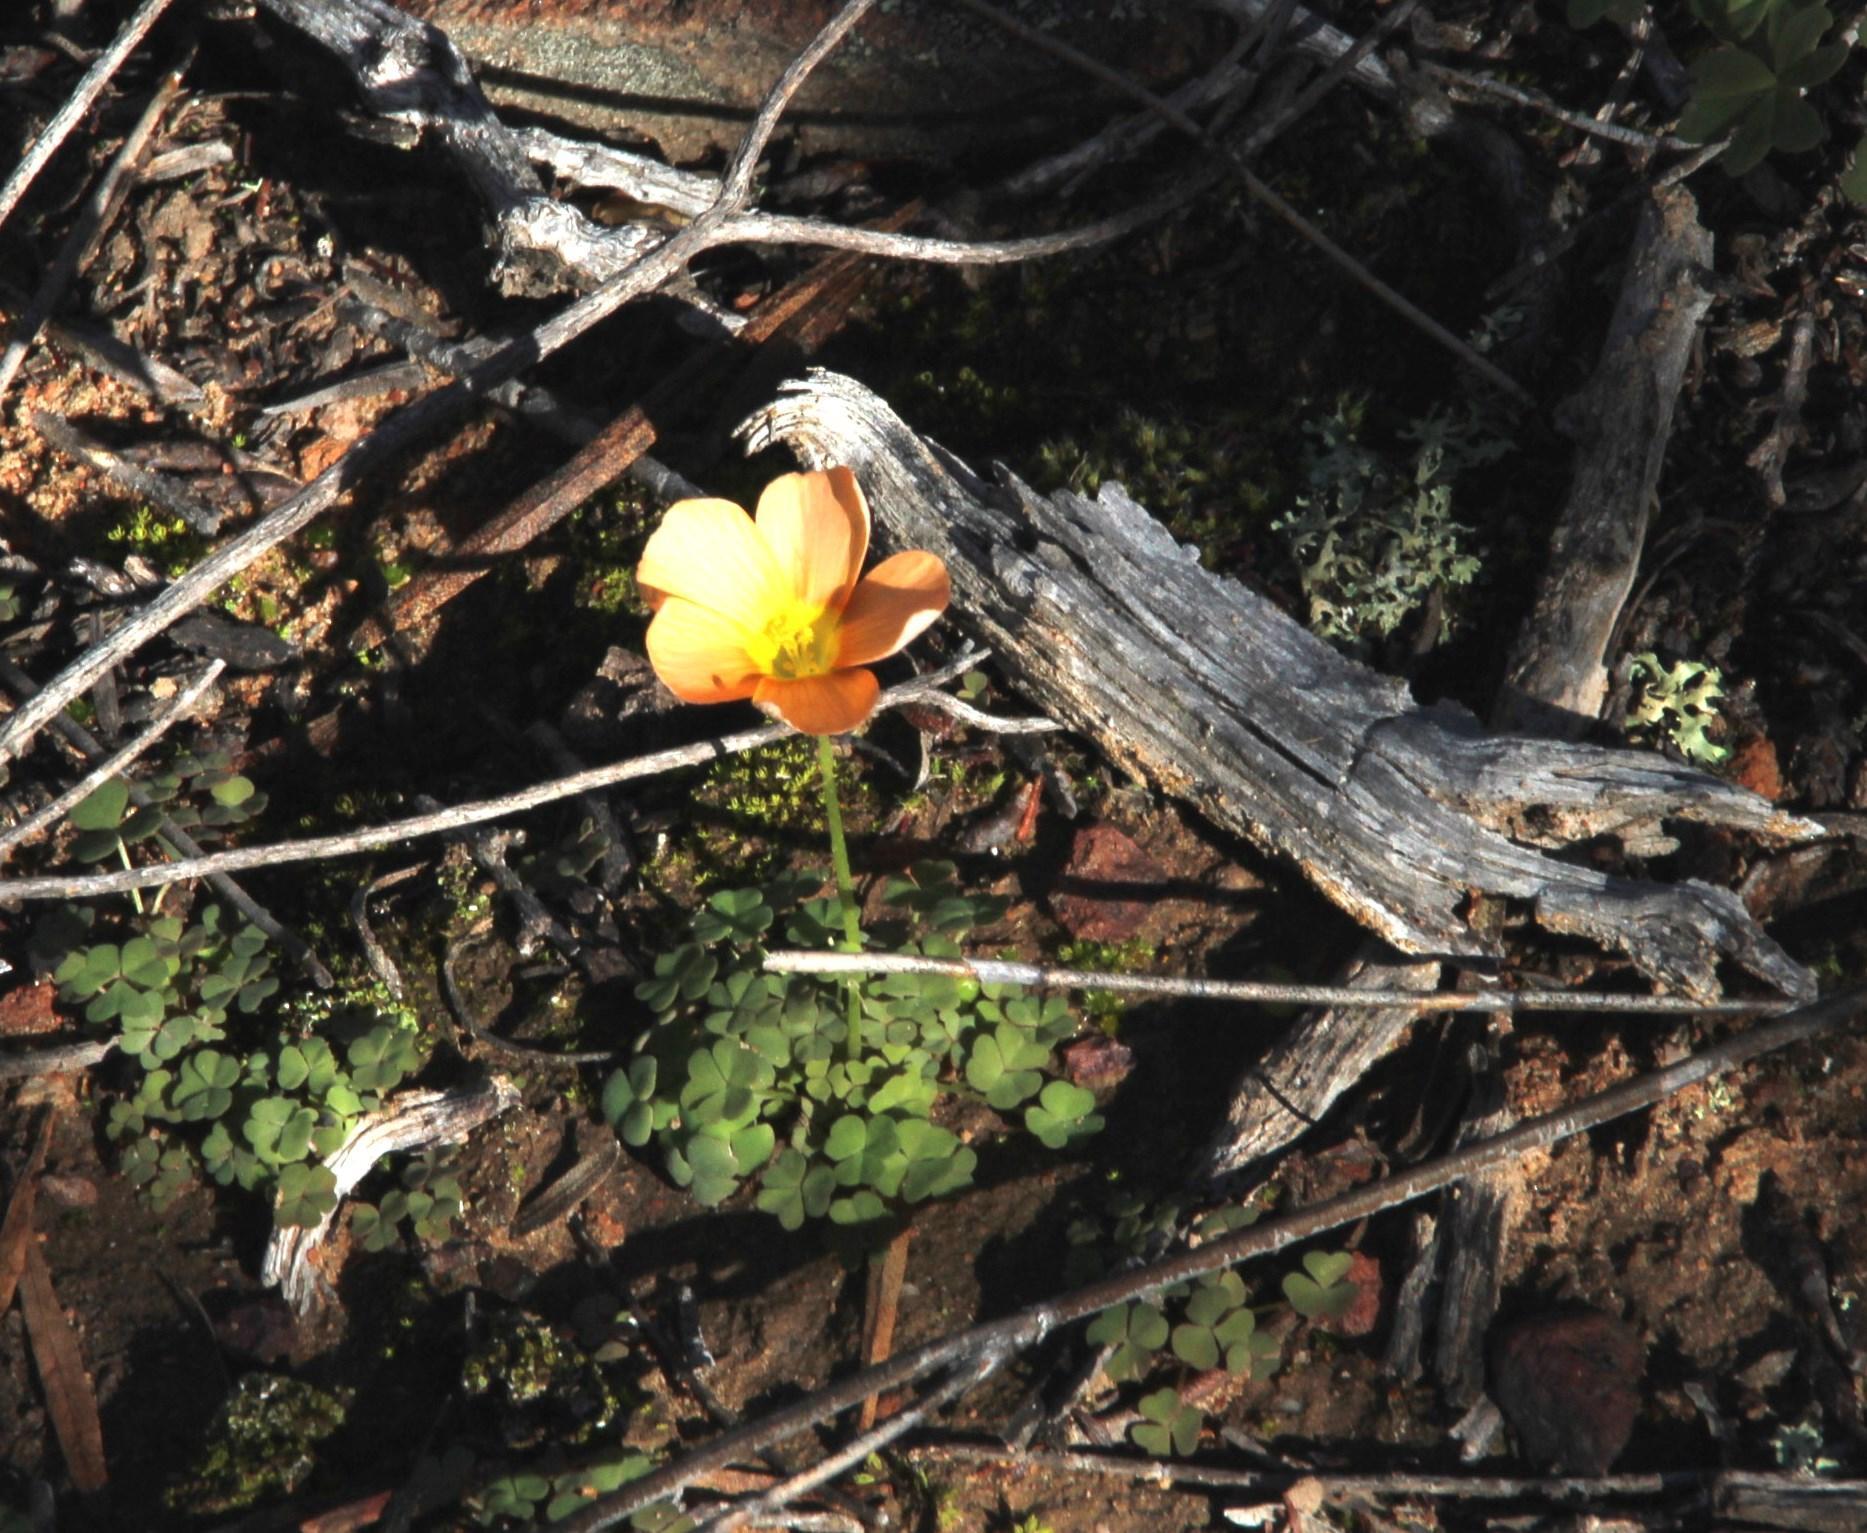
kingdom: Plantae
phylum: Tracheophyta
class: Magnoliopsida
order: Oxalidales
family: Oxalidaceae
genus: Oxalis
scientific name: Oxalis obtusa
